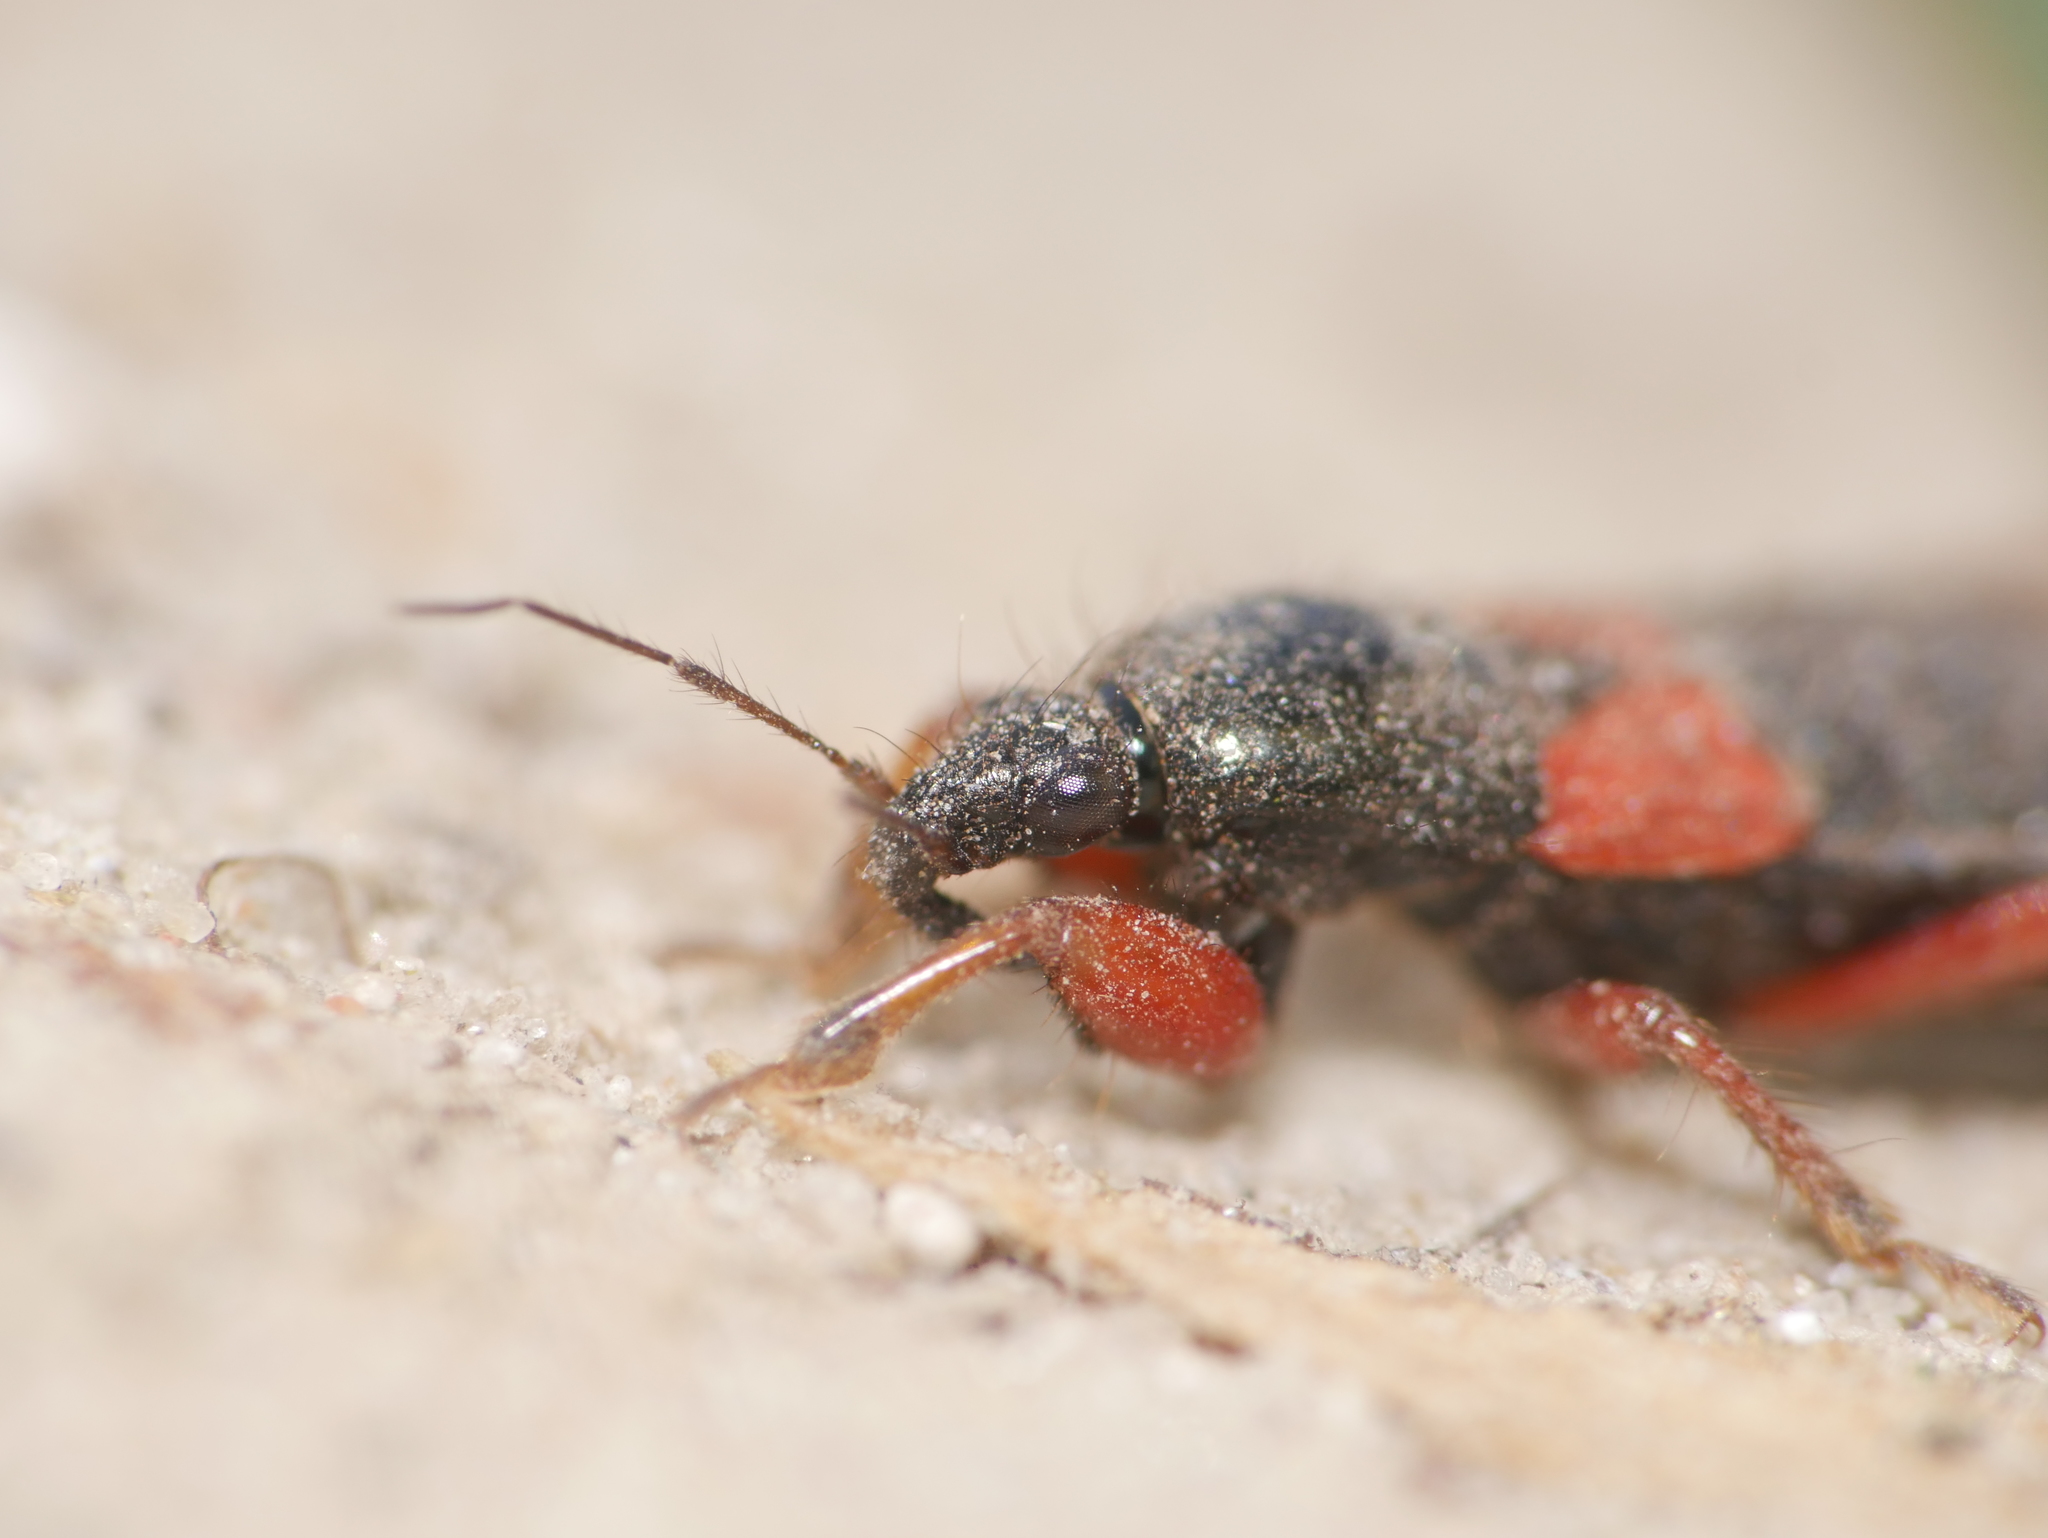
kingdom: Animalia
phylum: Arthropoda
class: Insecta
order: Hemiptera
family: Nabidae
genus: Prostemma
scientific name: Prostemma guttula
